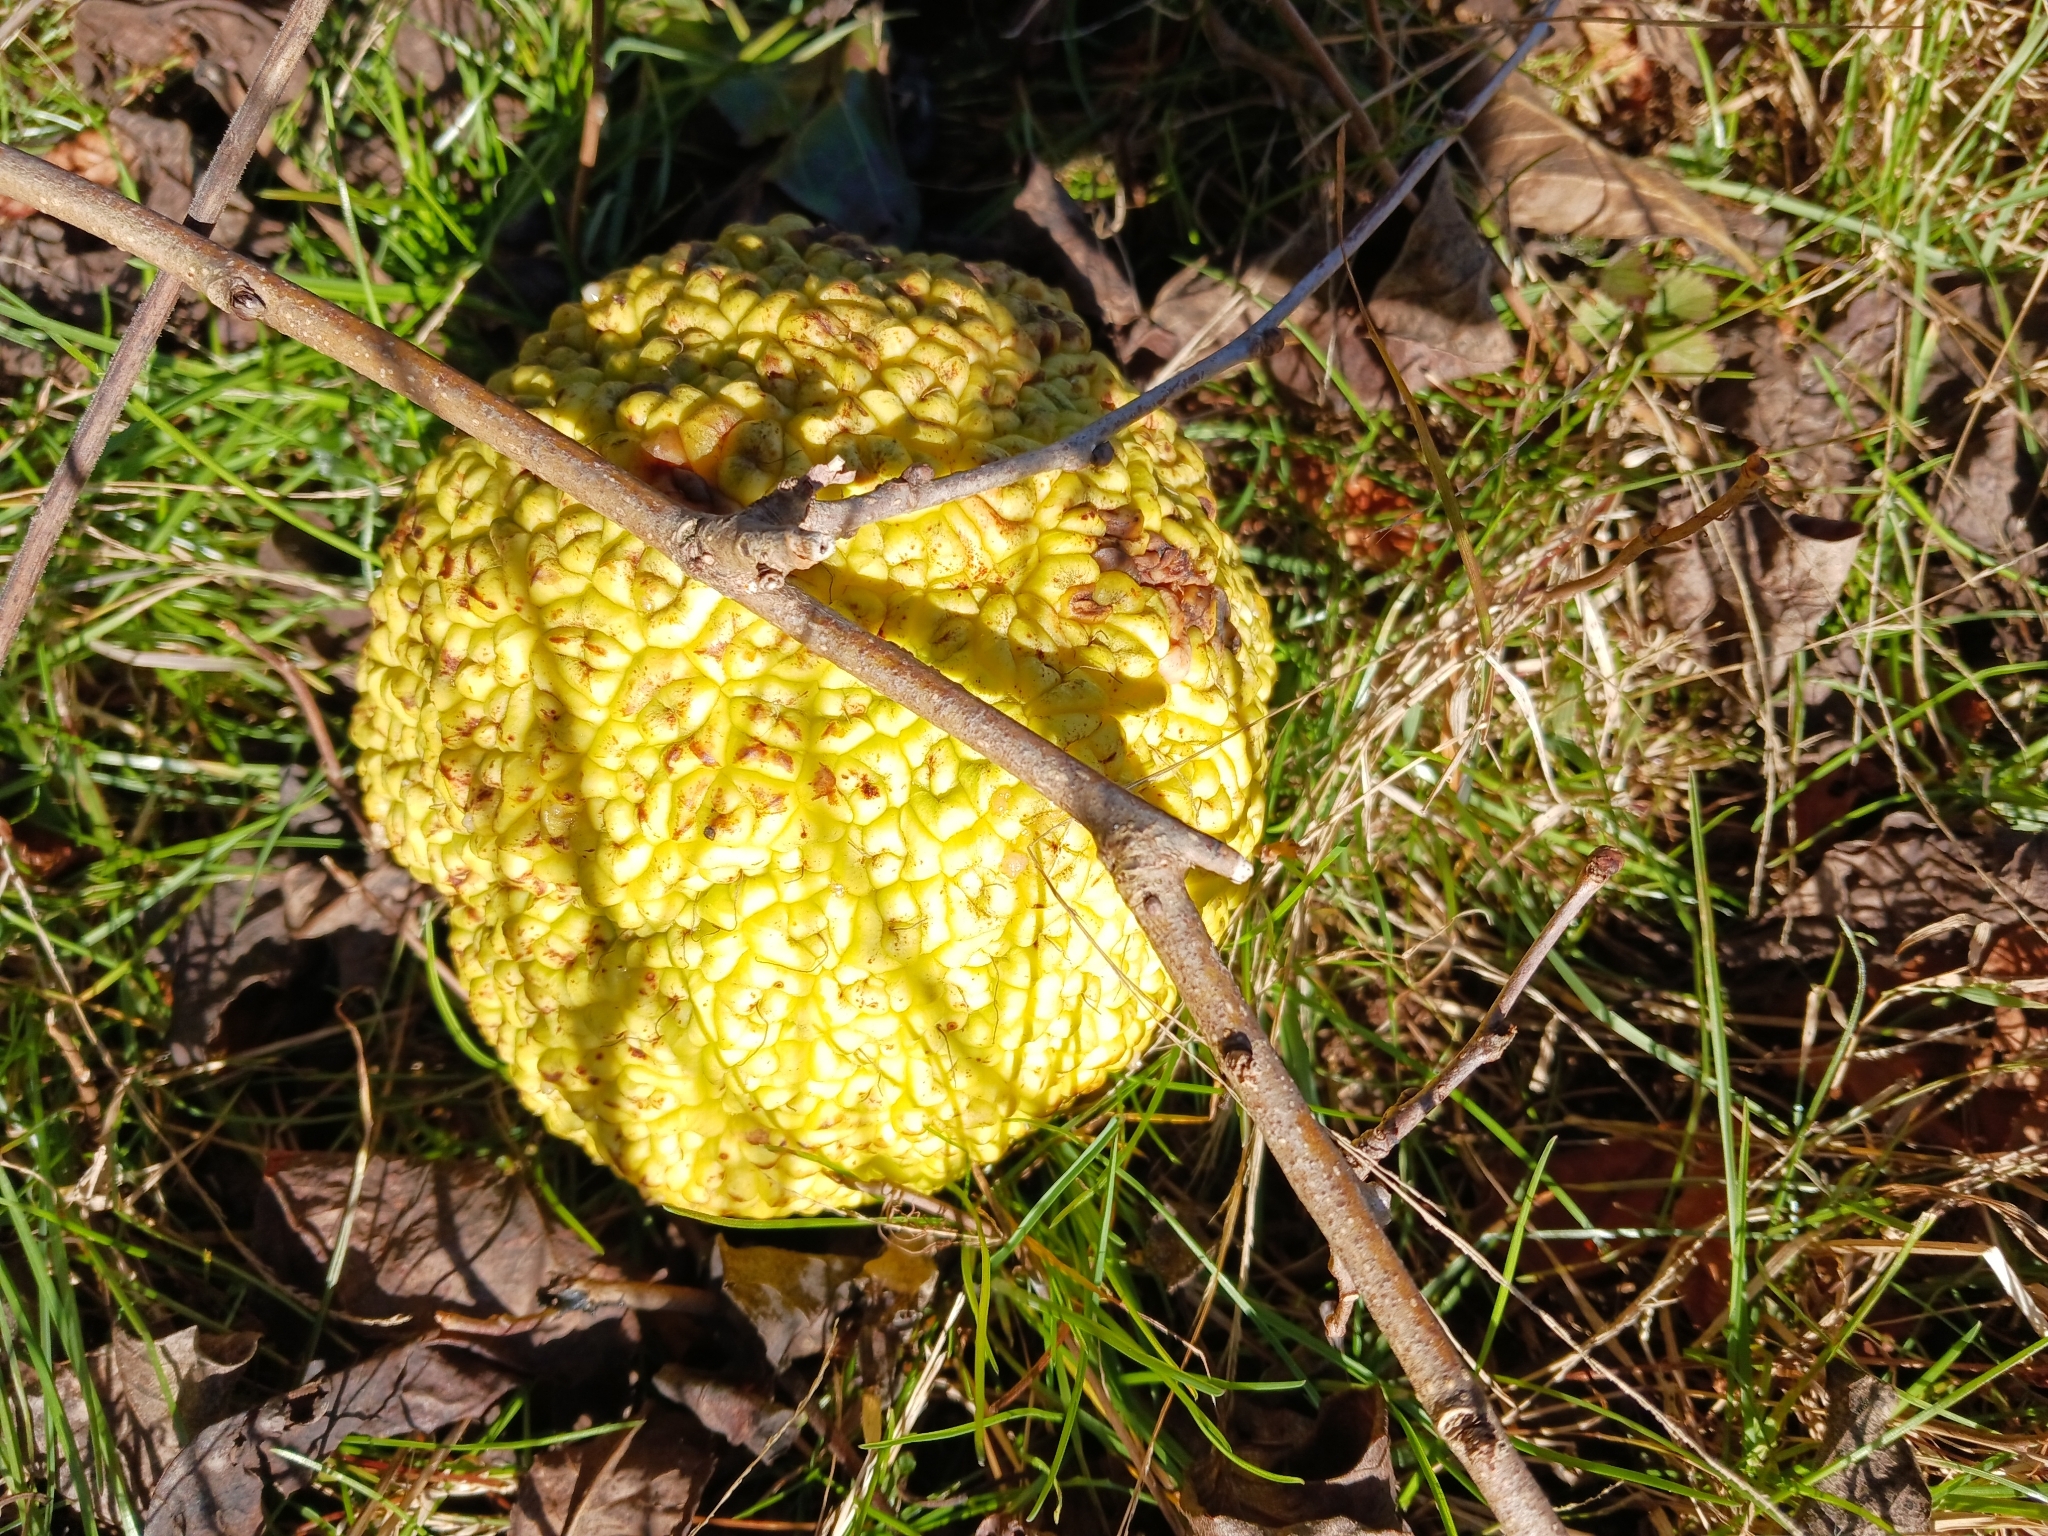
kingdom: Plantae
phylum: Tracheophyta
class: Magnoliopsida
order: Rosales
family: Moraceae
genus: Maclura
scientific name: Maclura pomifera
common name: Osage-orange
